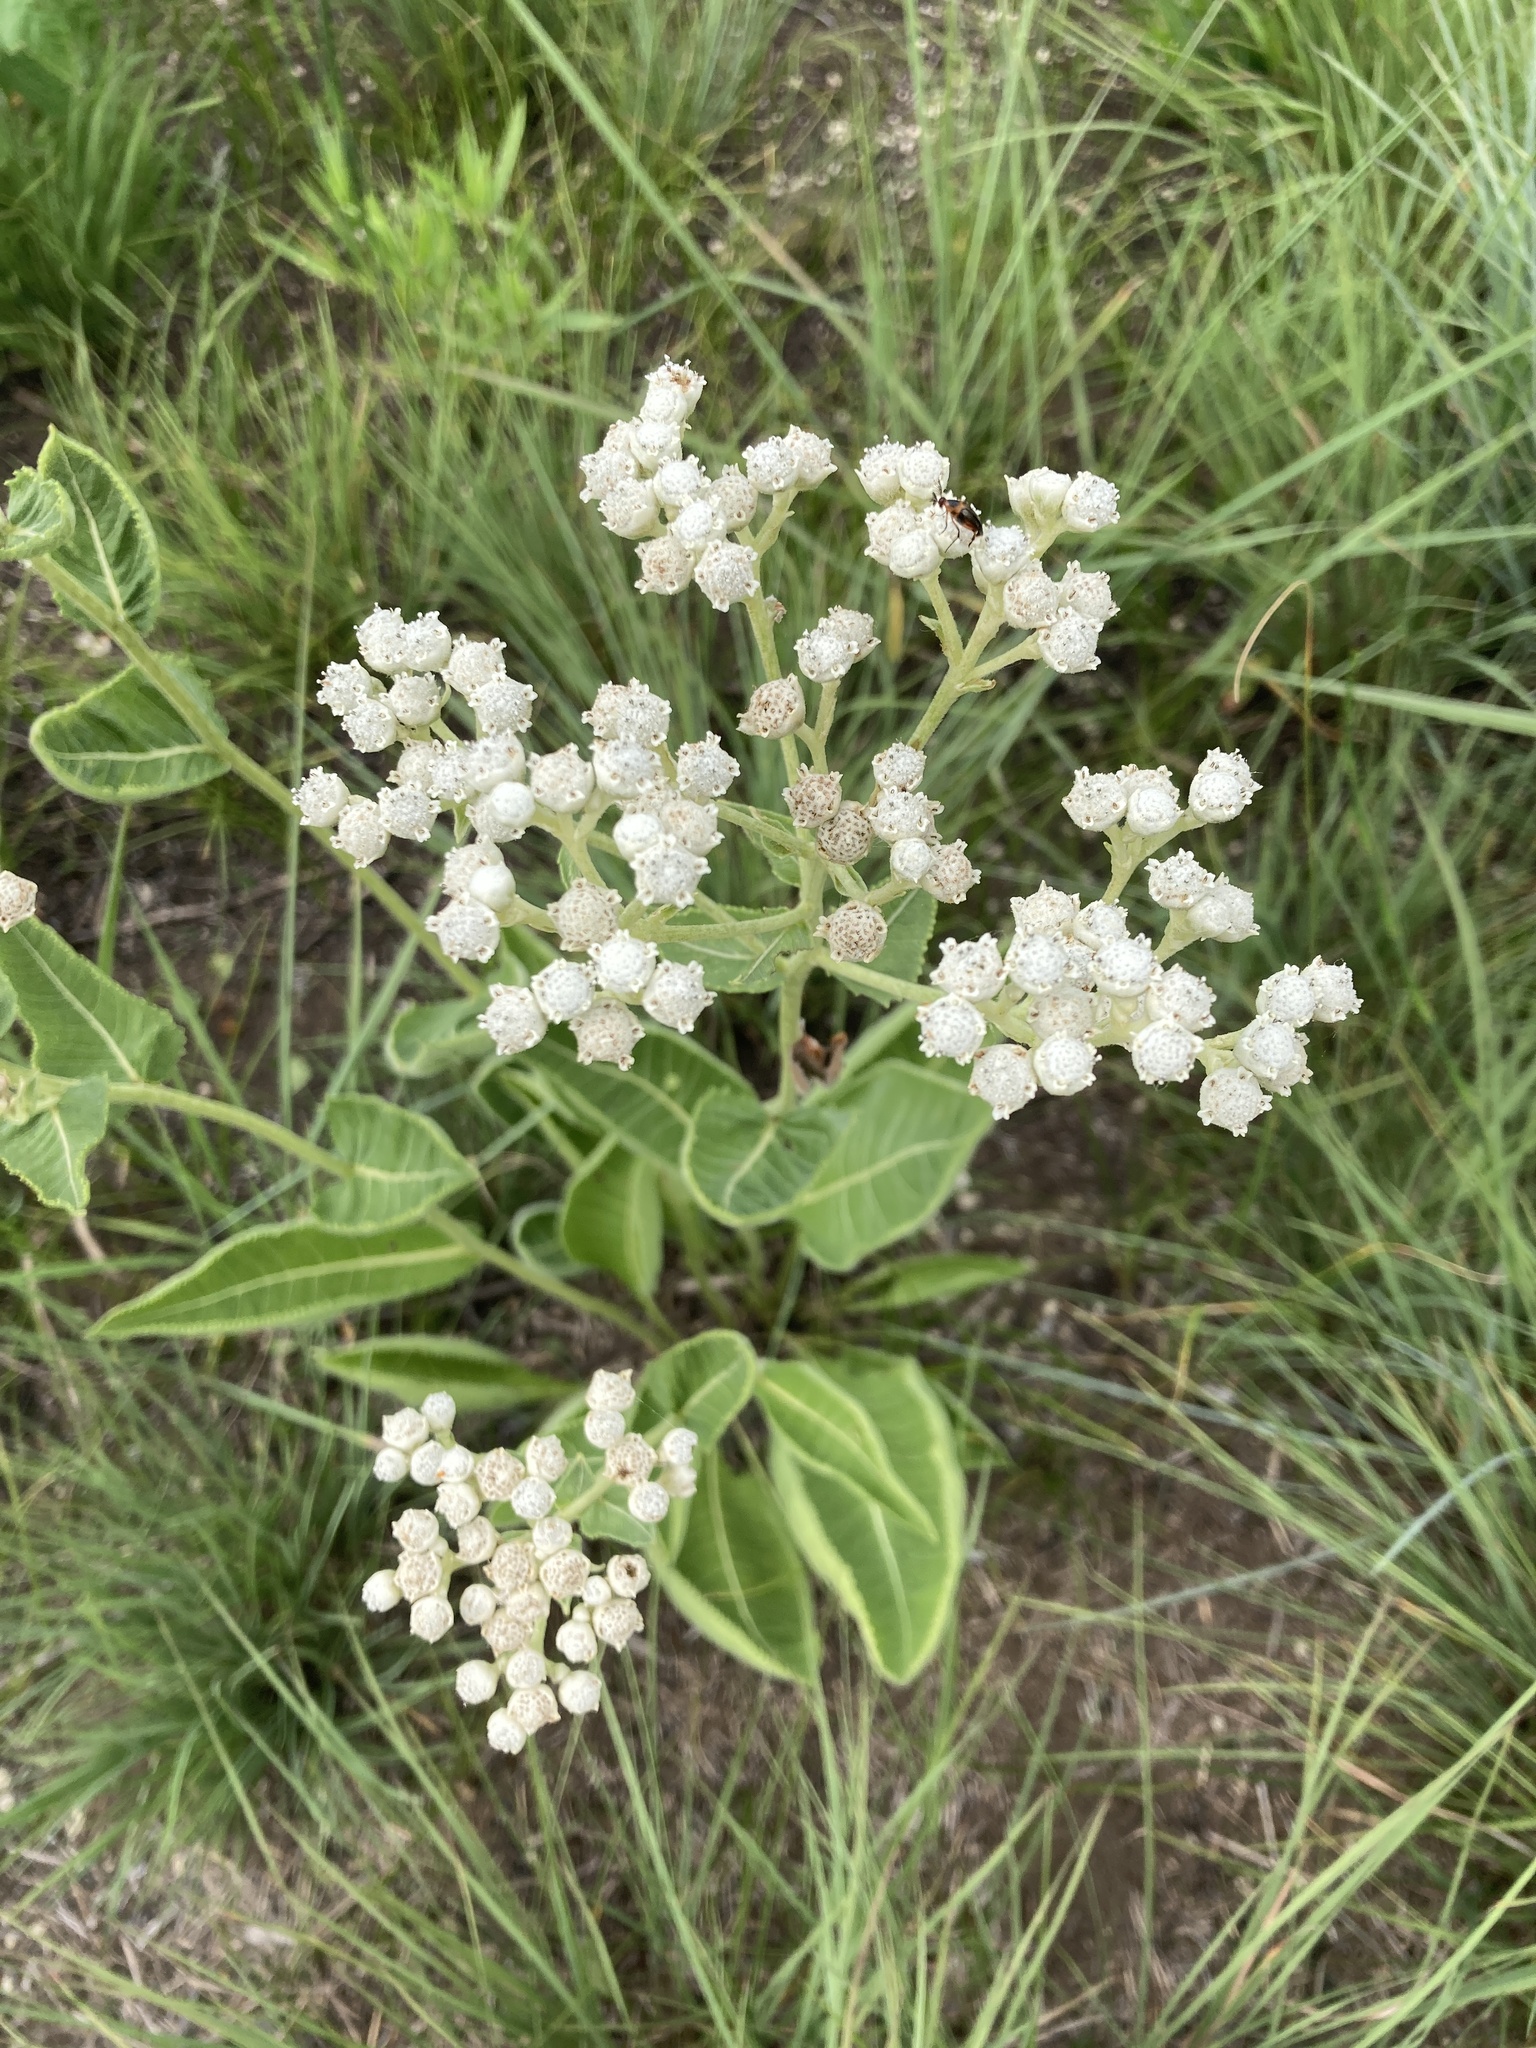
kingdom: Plantae
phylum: Tracheophyta
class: Magnoliopsida
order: Asterales
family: Asteraceae
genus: Parthenium
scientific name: Parthenium integrifolium
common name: American feverfew
